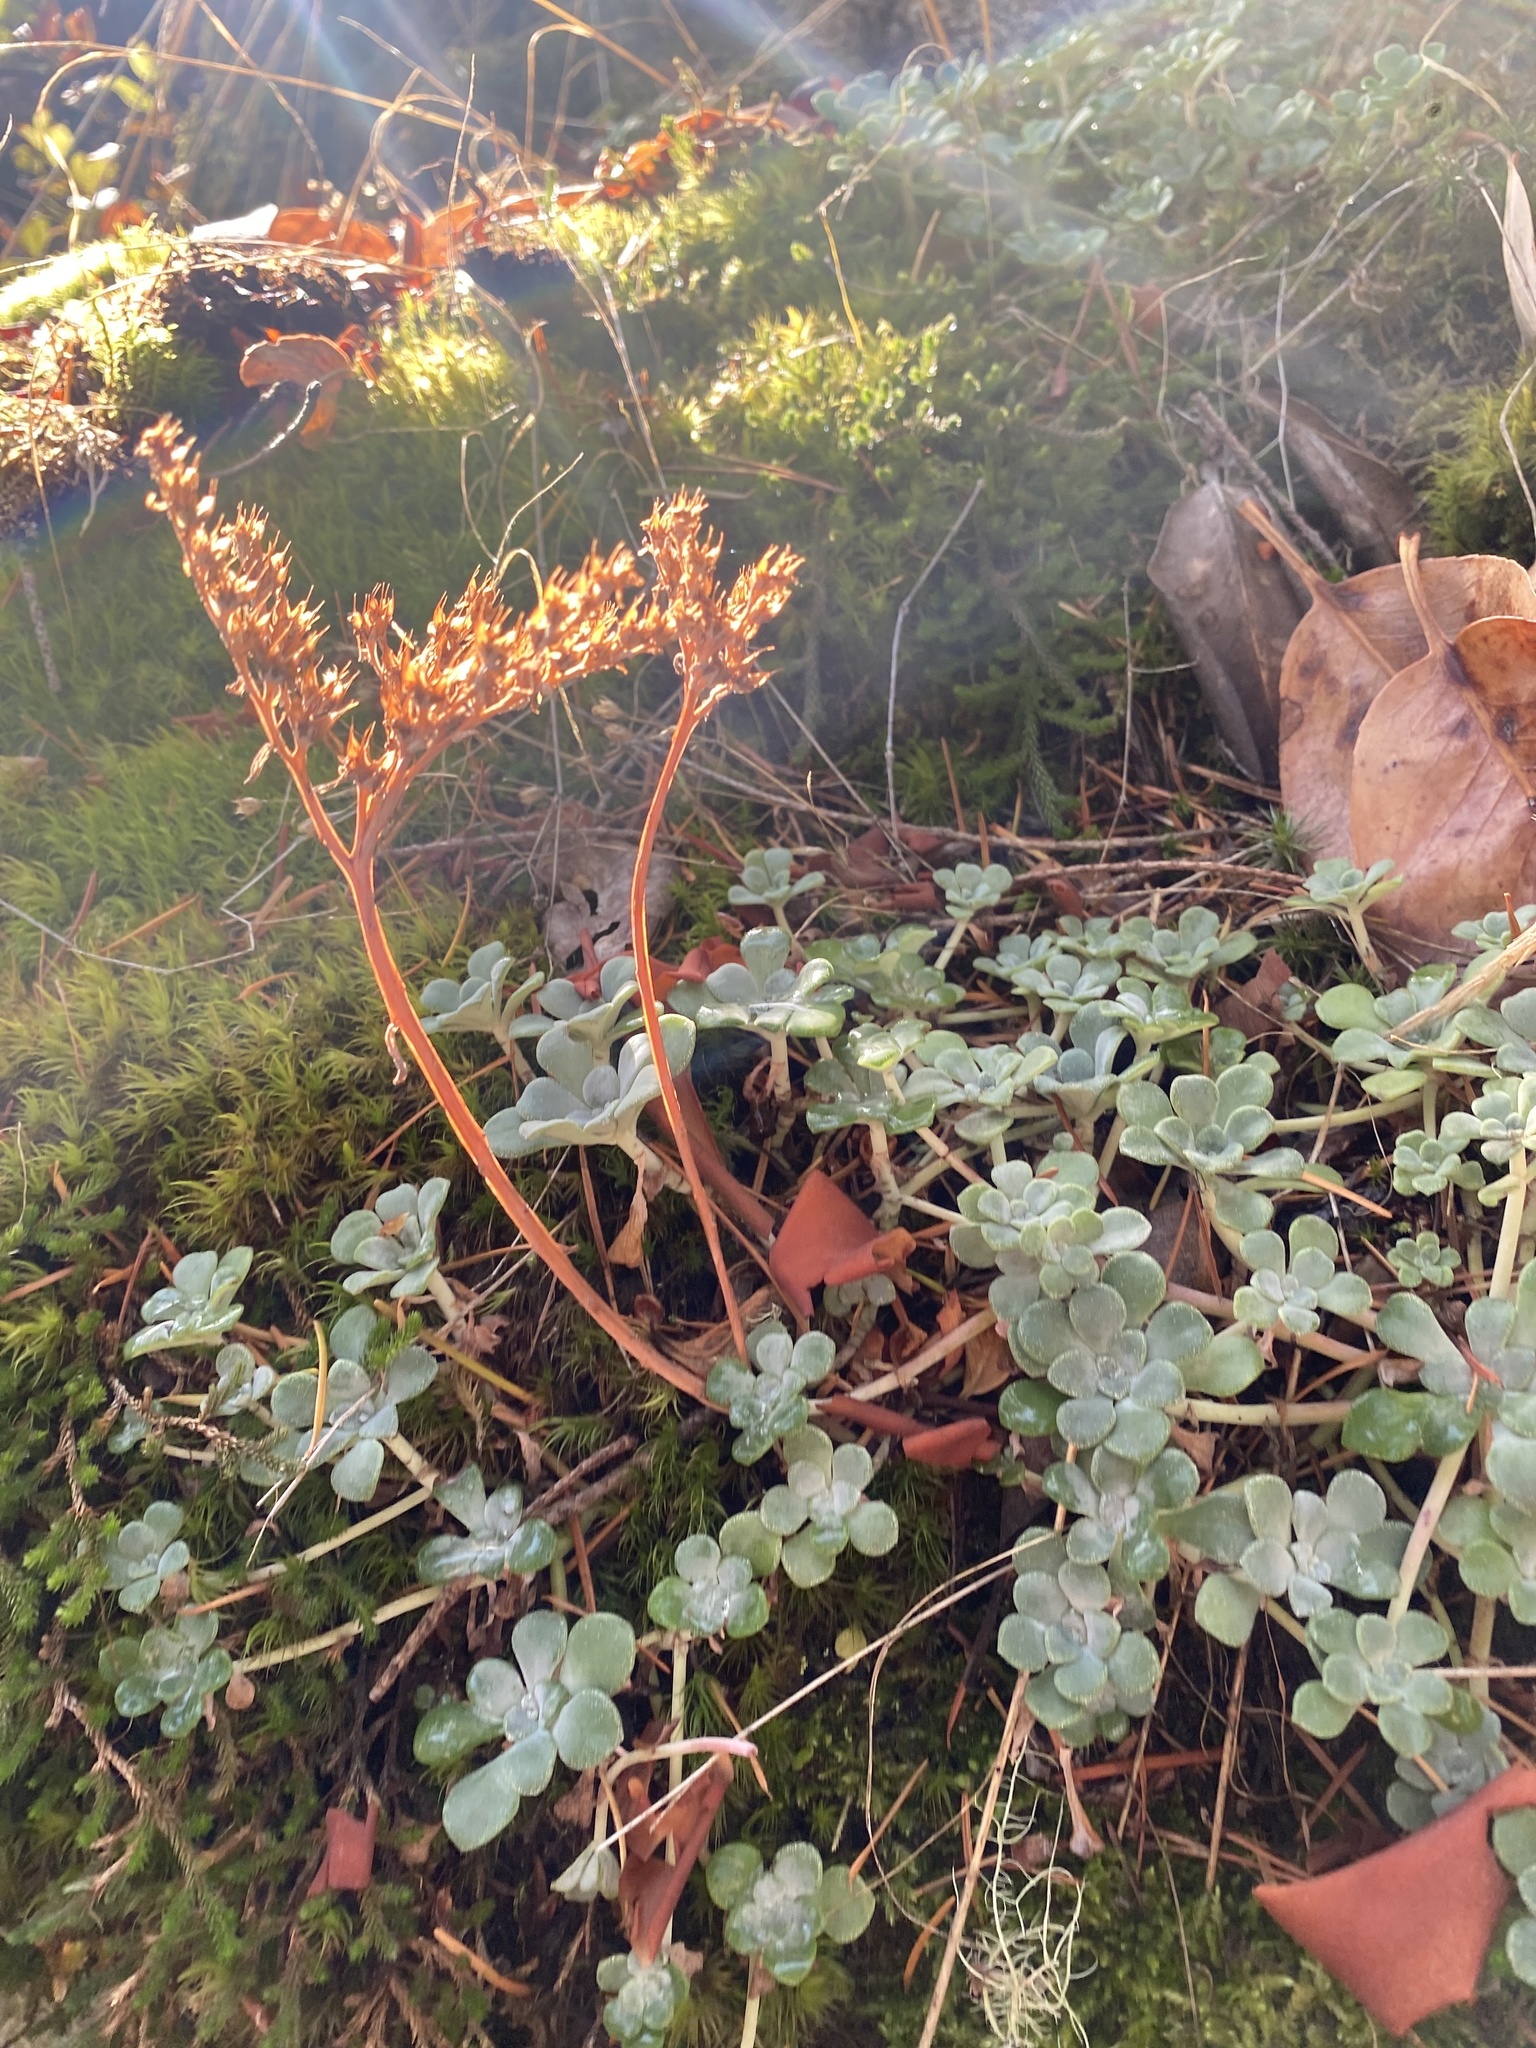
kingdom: Plantae
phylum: Tracheophyta
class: Magnoliopsida
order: Saxifragales
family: Crassulaceae
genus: Sedum
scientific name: Sedum spathulifolium
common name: Colorado stonecrop
